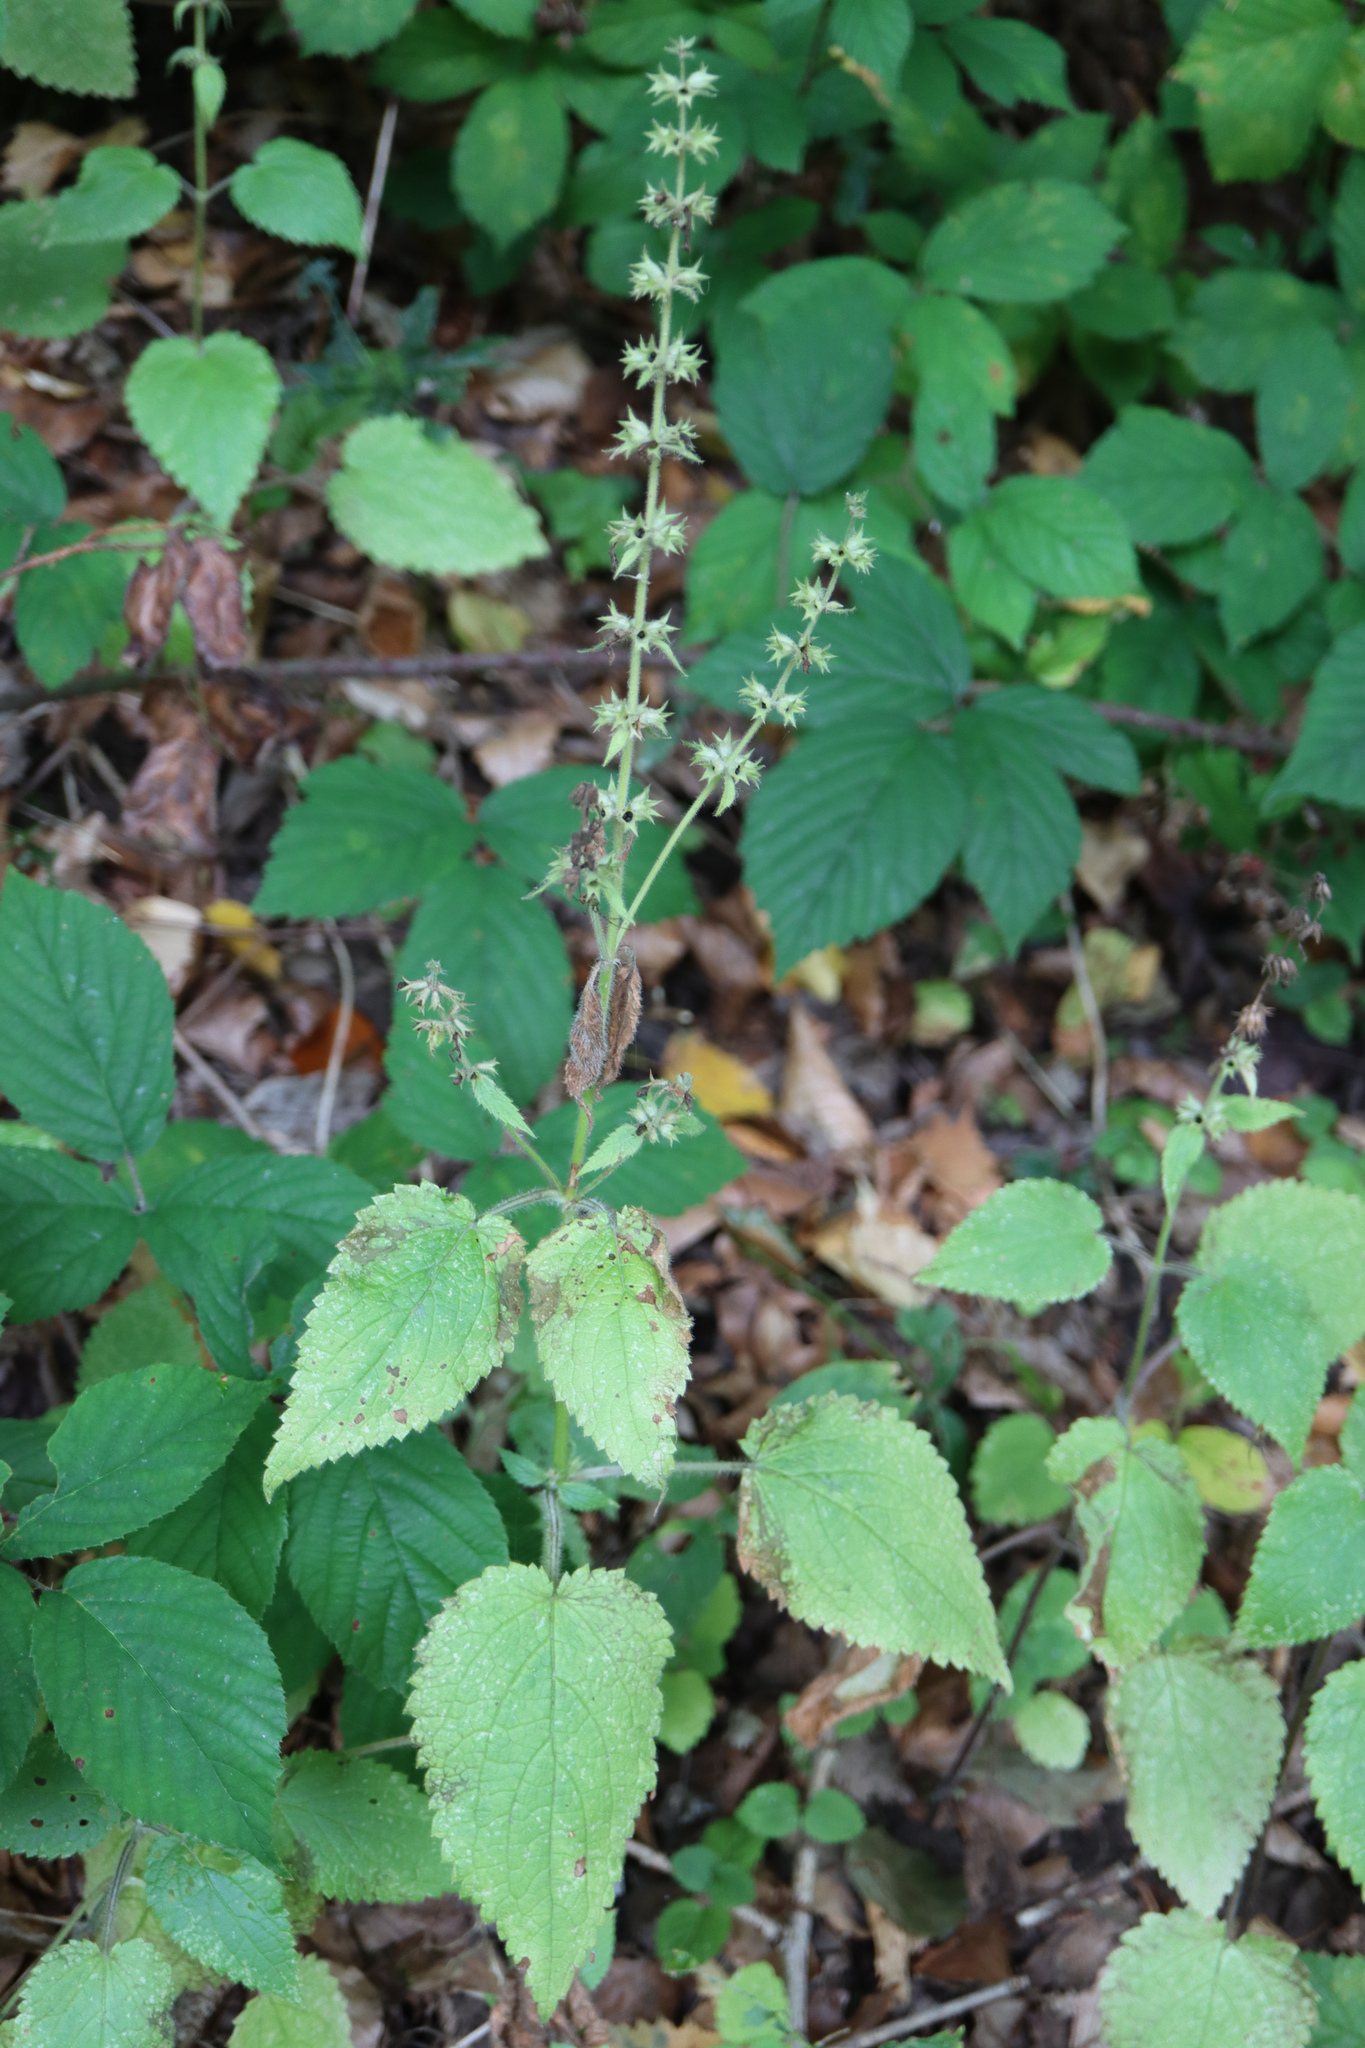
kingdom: Plantae
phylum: Tracheophyta
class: Magnoliopsida
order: Lamiales
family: Lamiaceae
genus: Stachys
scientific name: Stachys sylvatica
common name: Hedge woundwort
